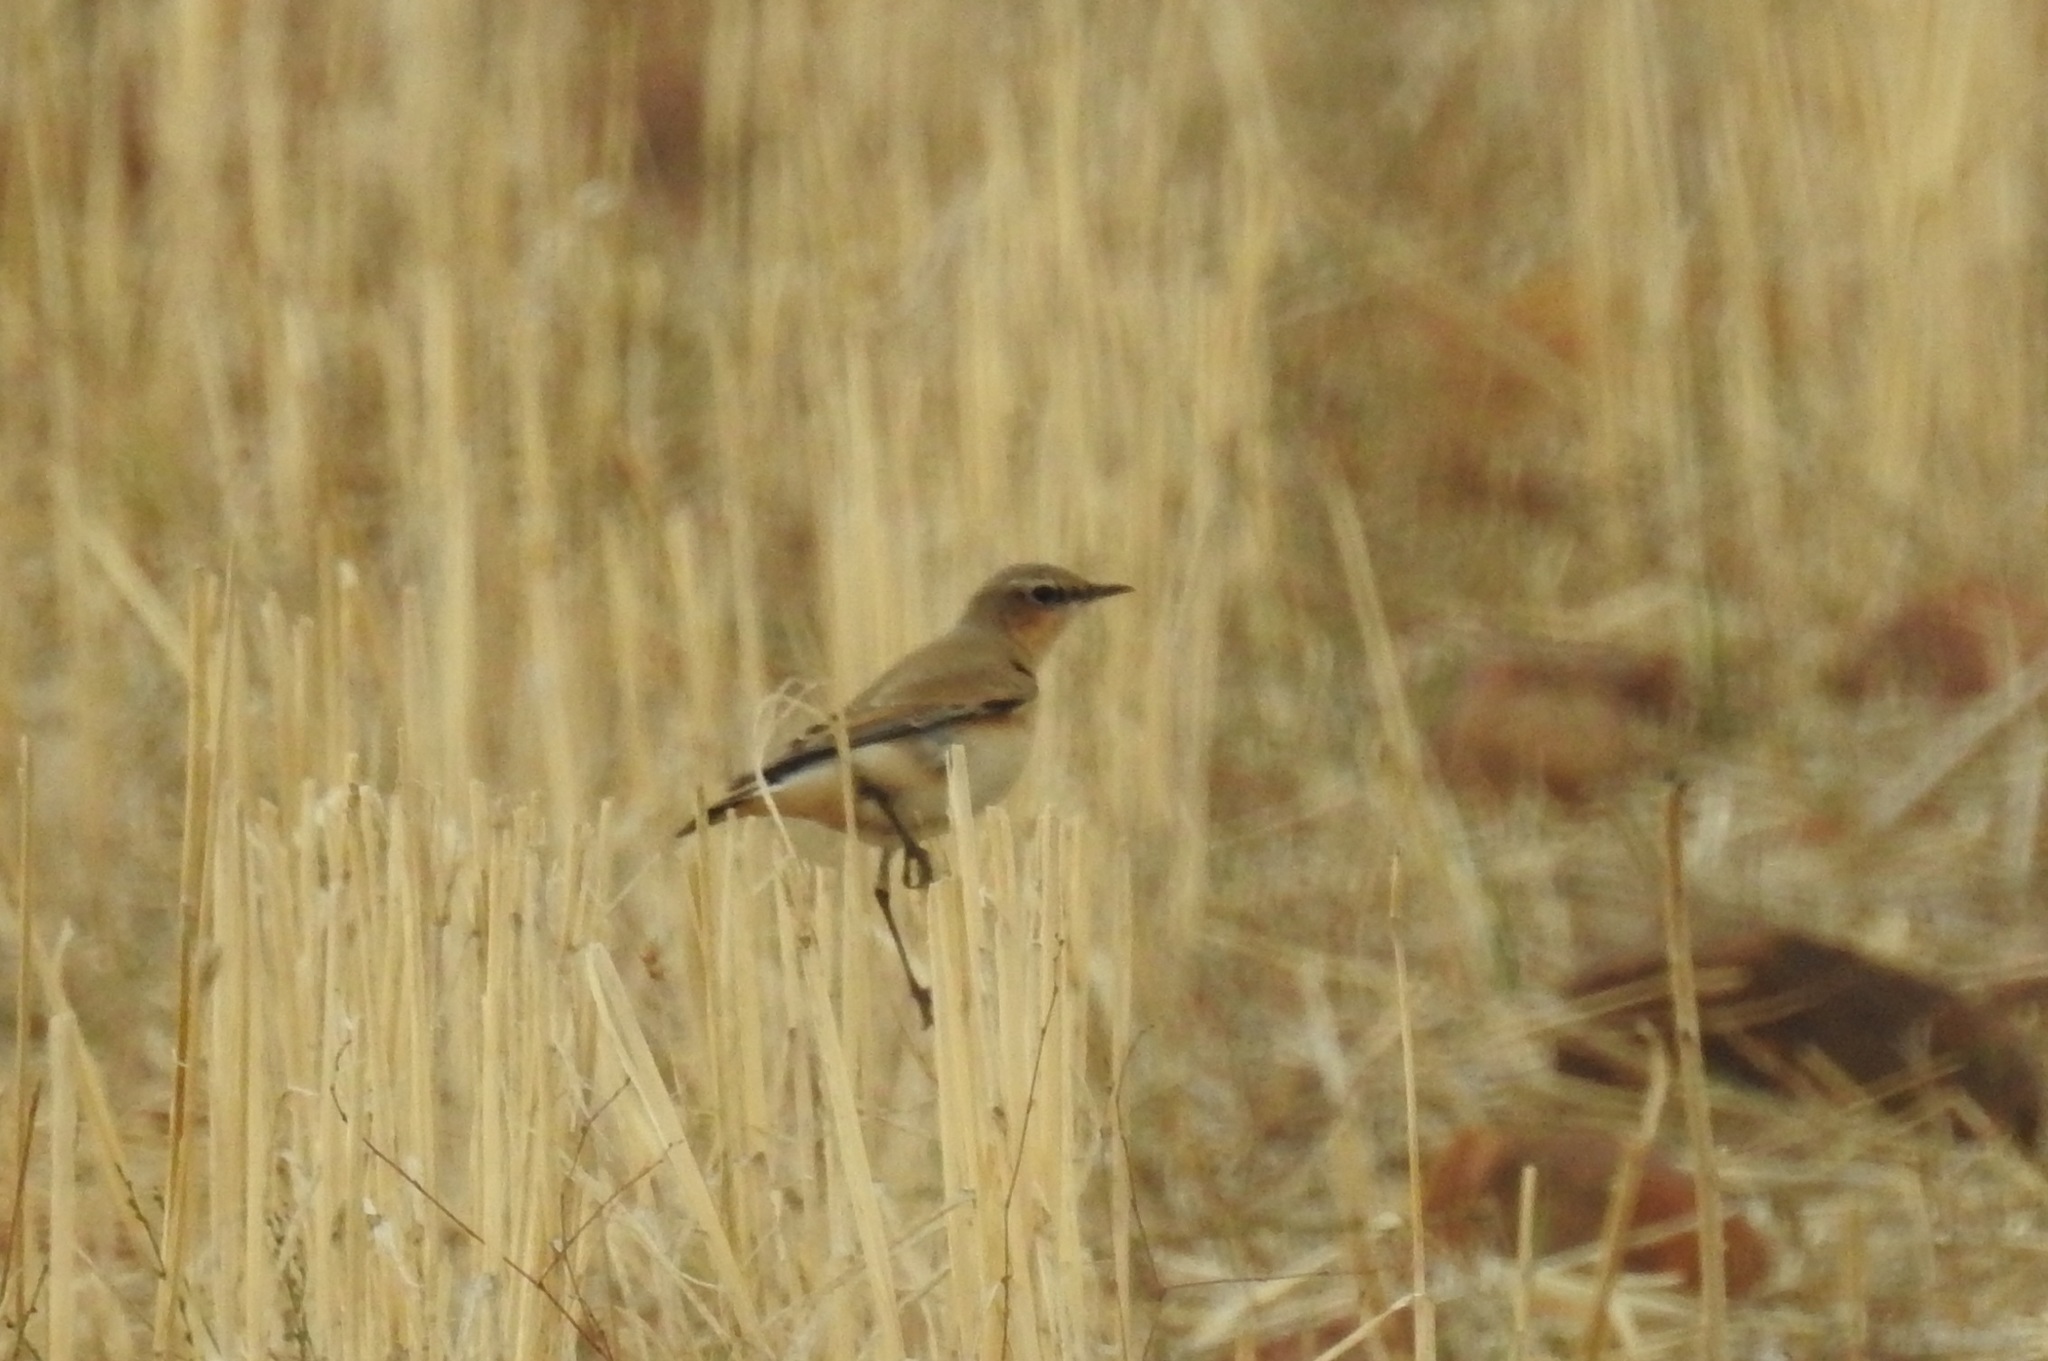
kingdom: Animalia
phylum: Chordata
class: Aves
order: Passeriformes
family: Muscicapidae
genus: Oenanthe
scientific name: Oenanthe oenanthe
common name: Northern wheatear
